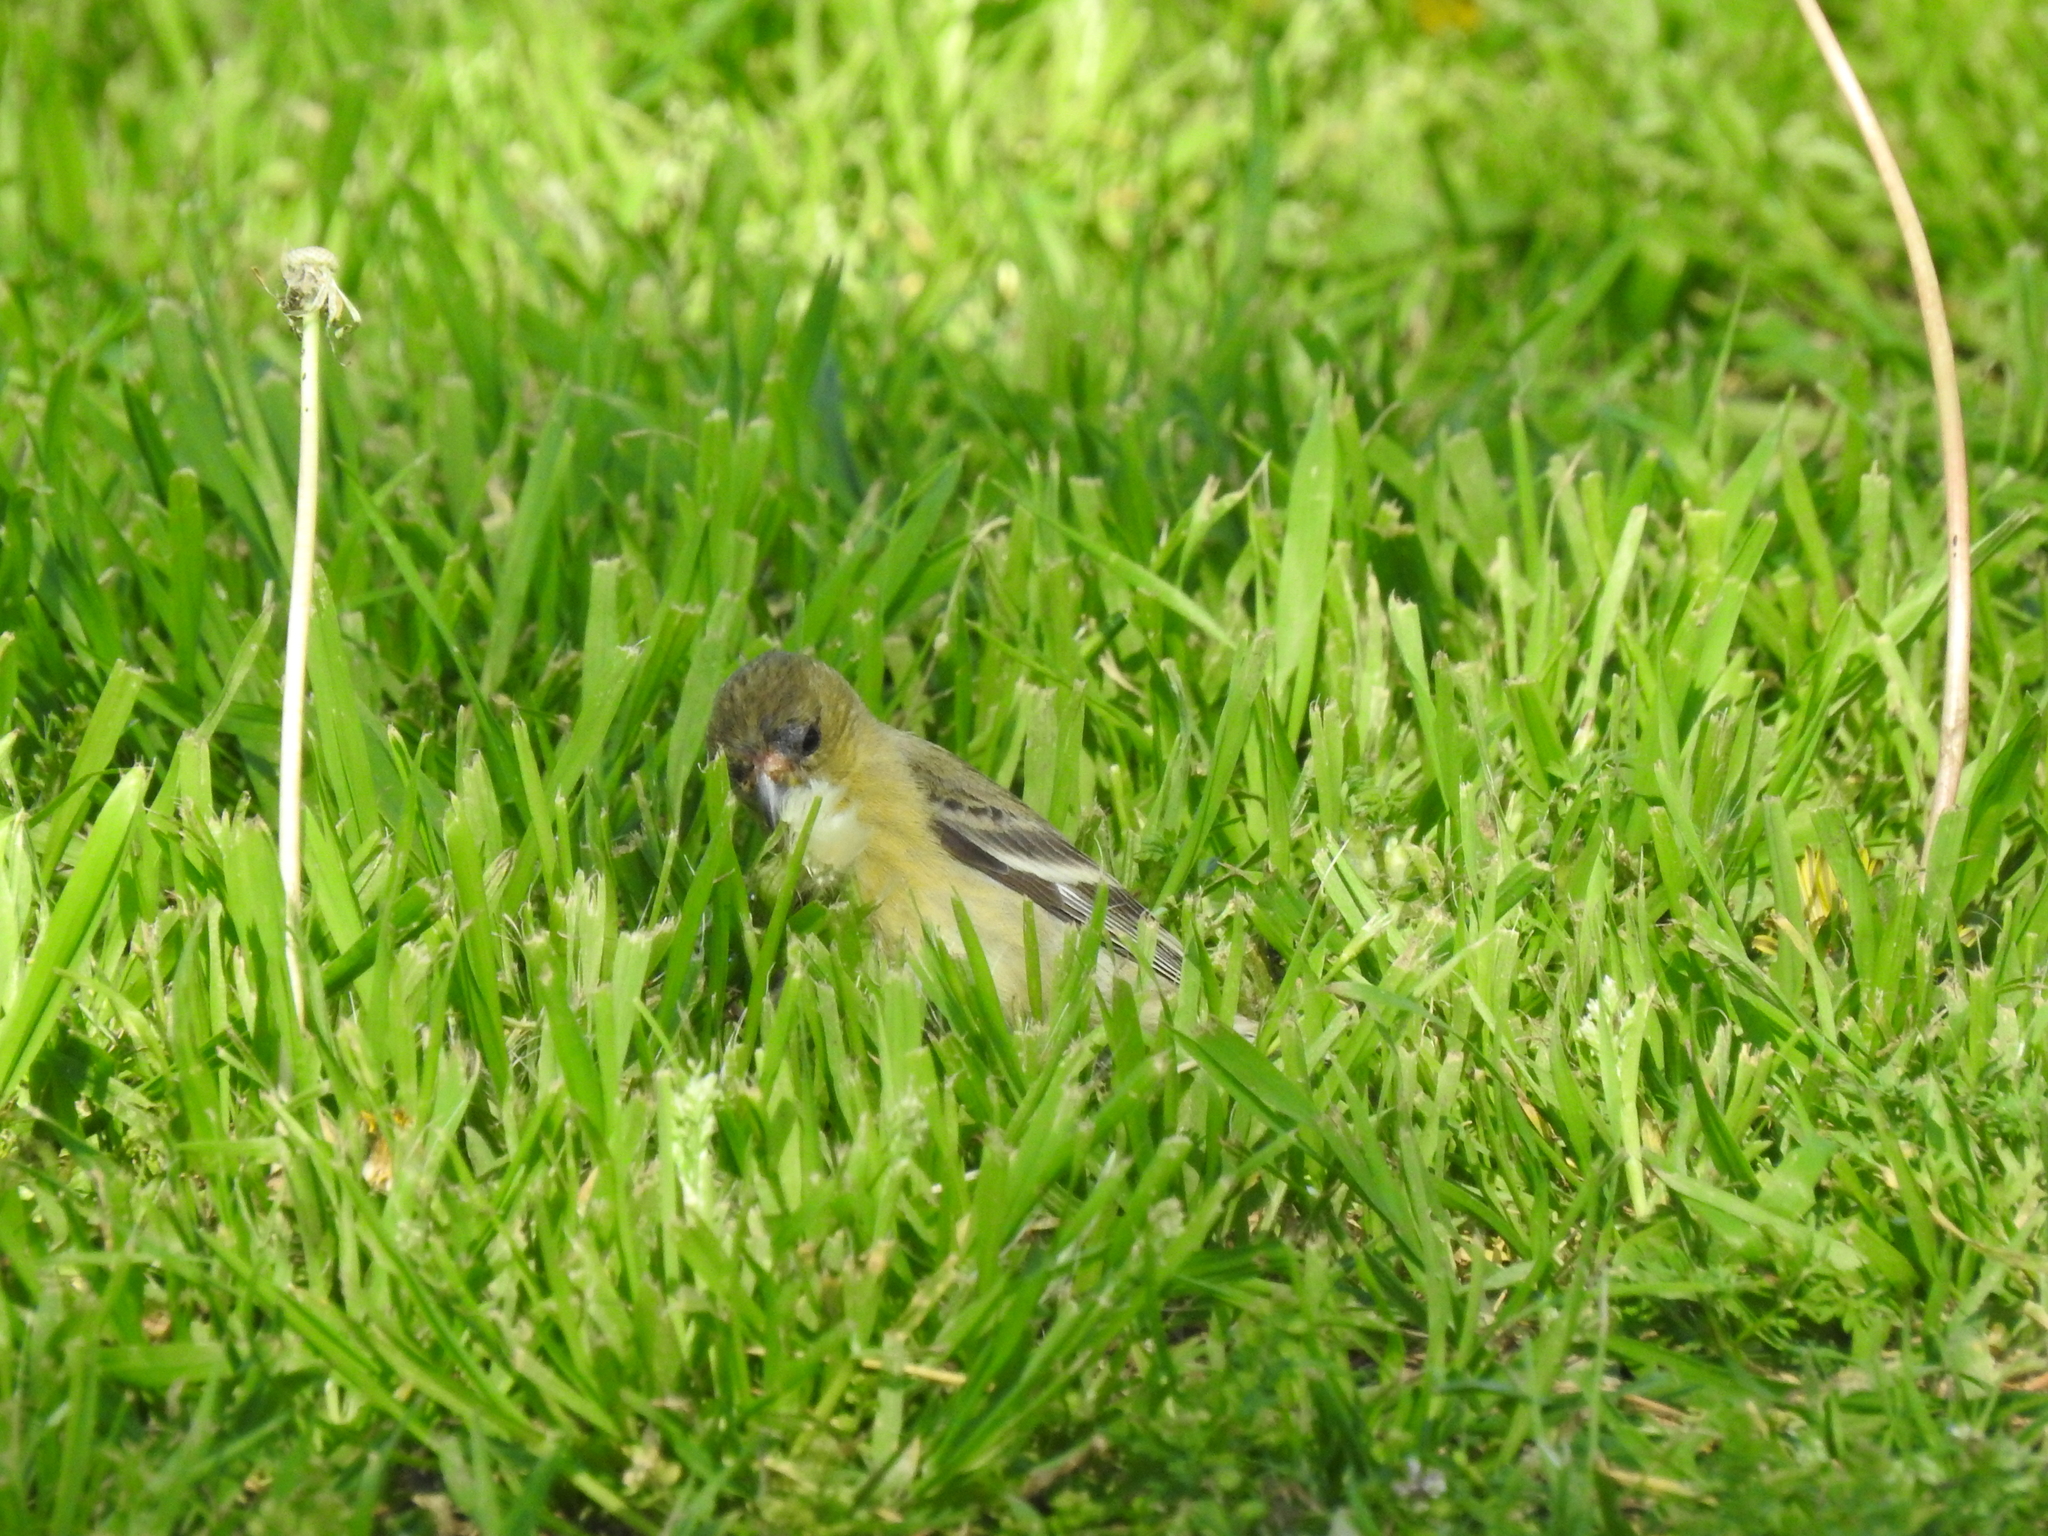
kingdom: Animalia
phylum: Chordata
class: Aves
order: Passeriformes
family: Fringillidae
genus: Spinus
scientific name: Spinus psaltria
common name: Lesser goldfinch
